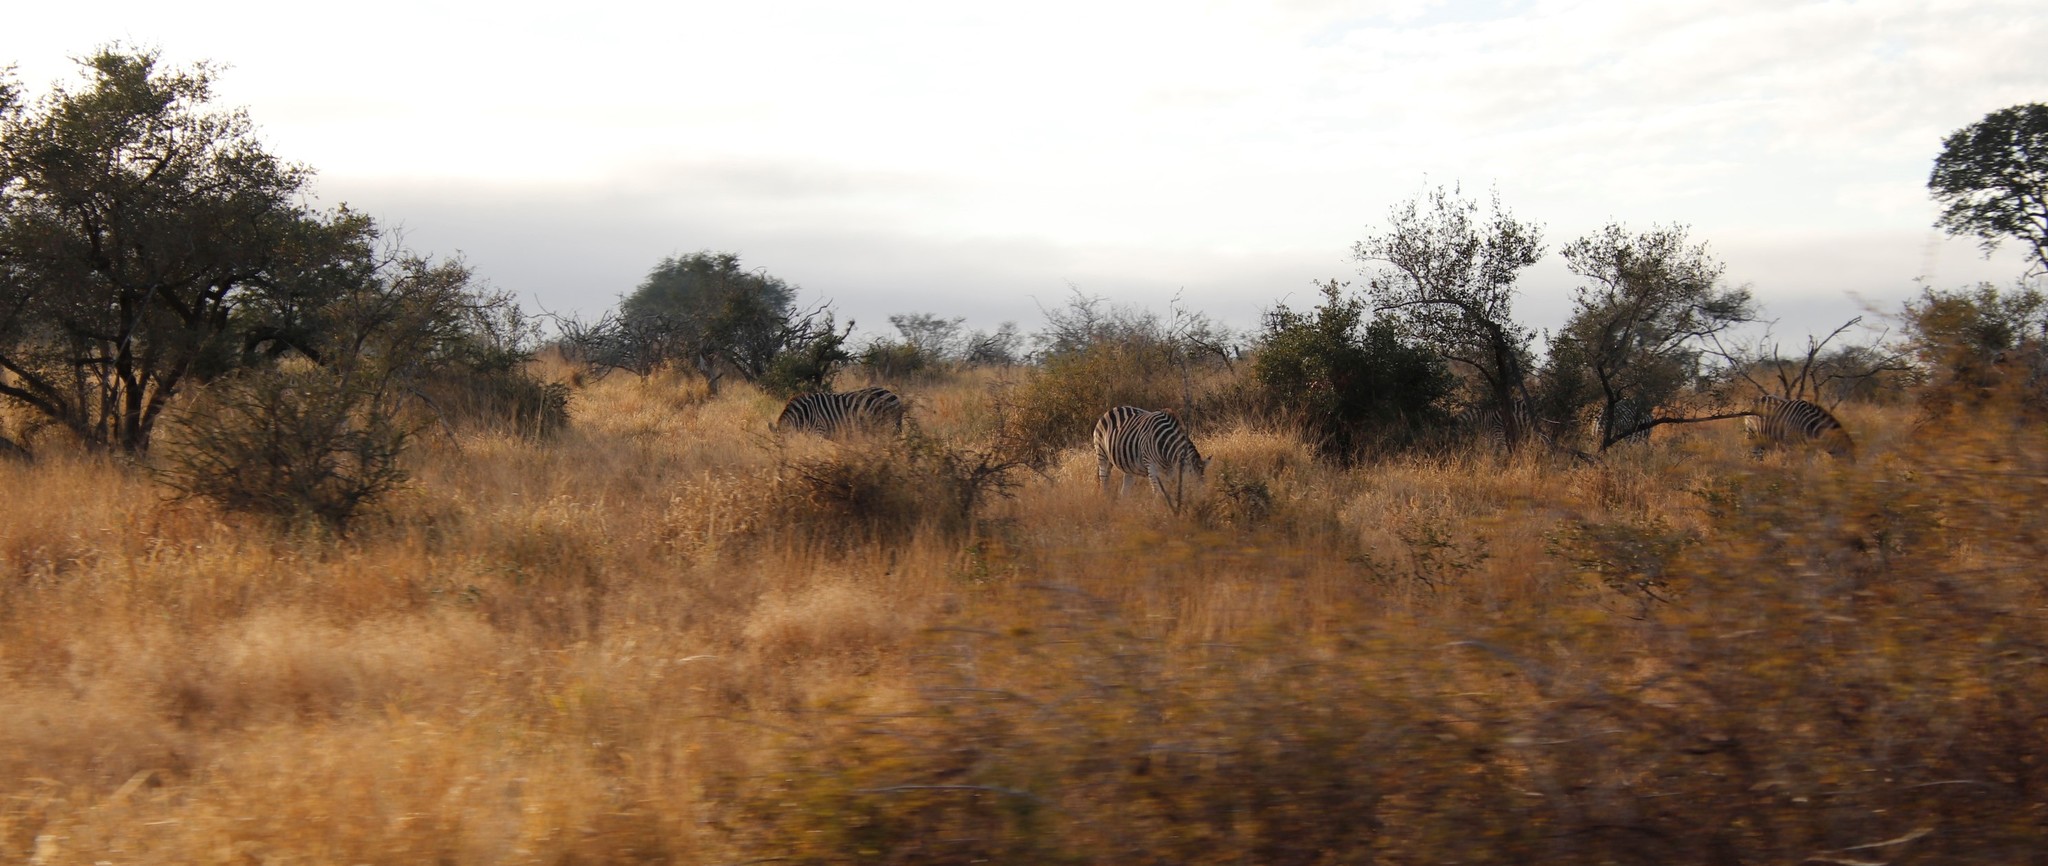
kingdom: Animalia
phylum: Chordata
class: Mammalia
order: Perissodactyla
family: Equidae
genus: Equus
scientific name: Equus quagga
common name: Plains zebra
